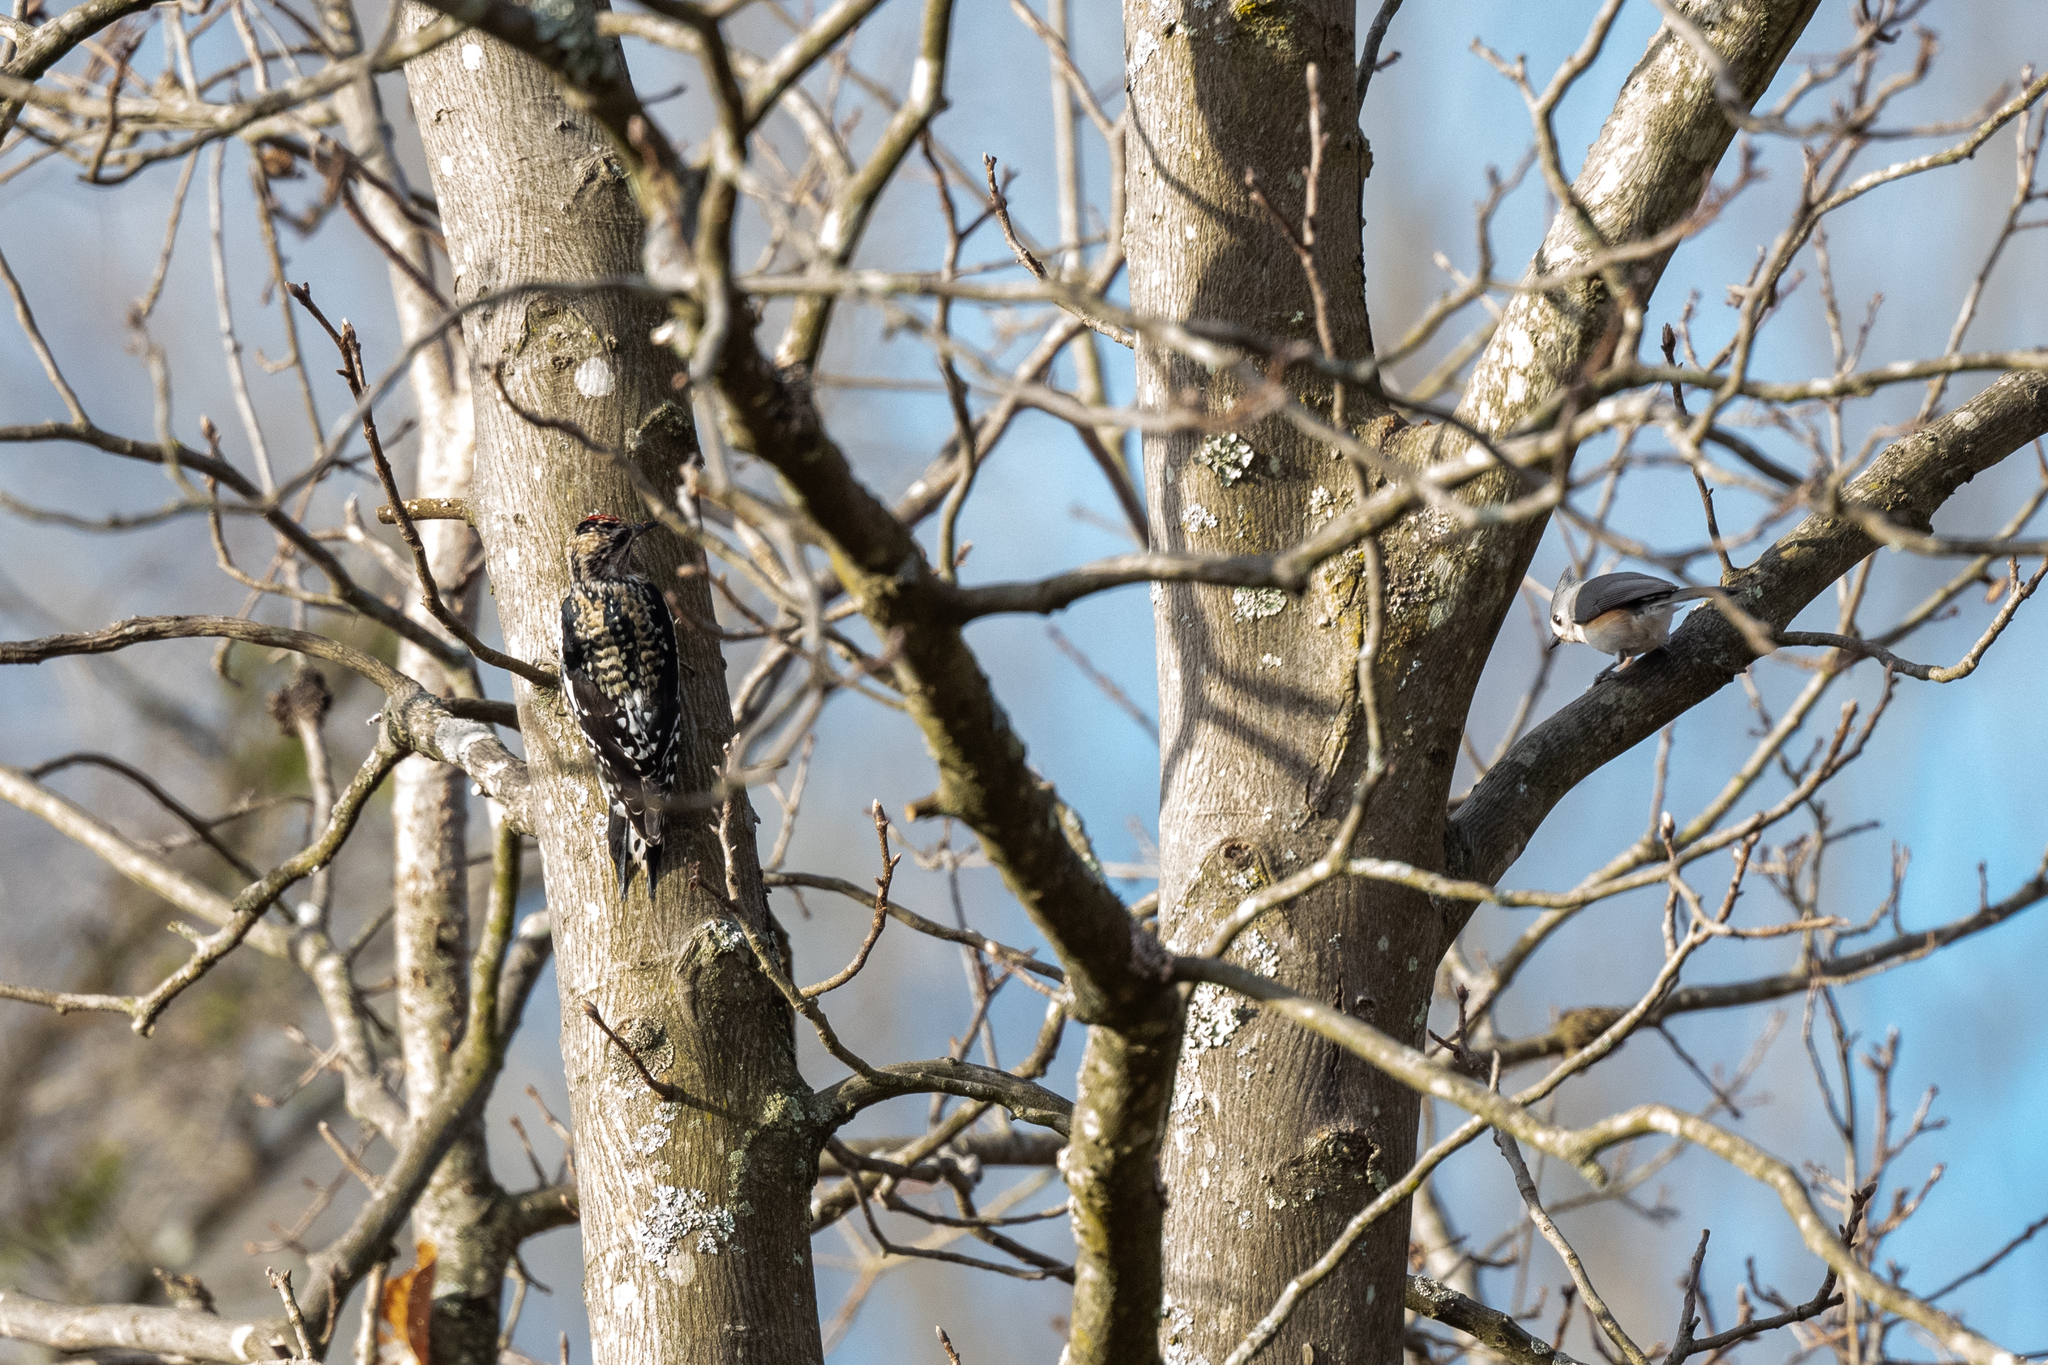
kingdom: Animalia
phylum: Chordata
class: Aves
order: Passeriformes
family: Paridae
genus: Baeolophus
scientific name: Baeolophus bicolor
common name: Tufted titmouse
